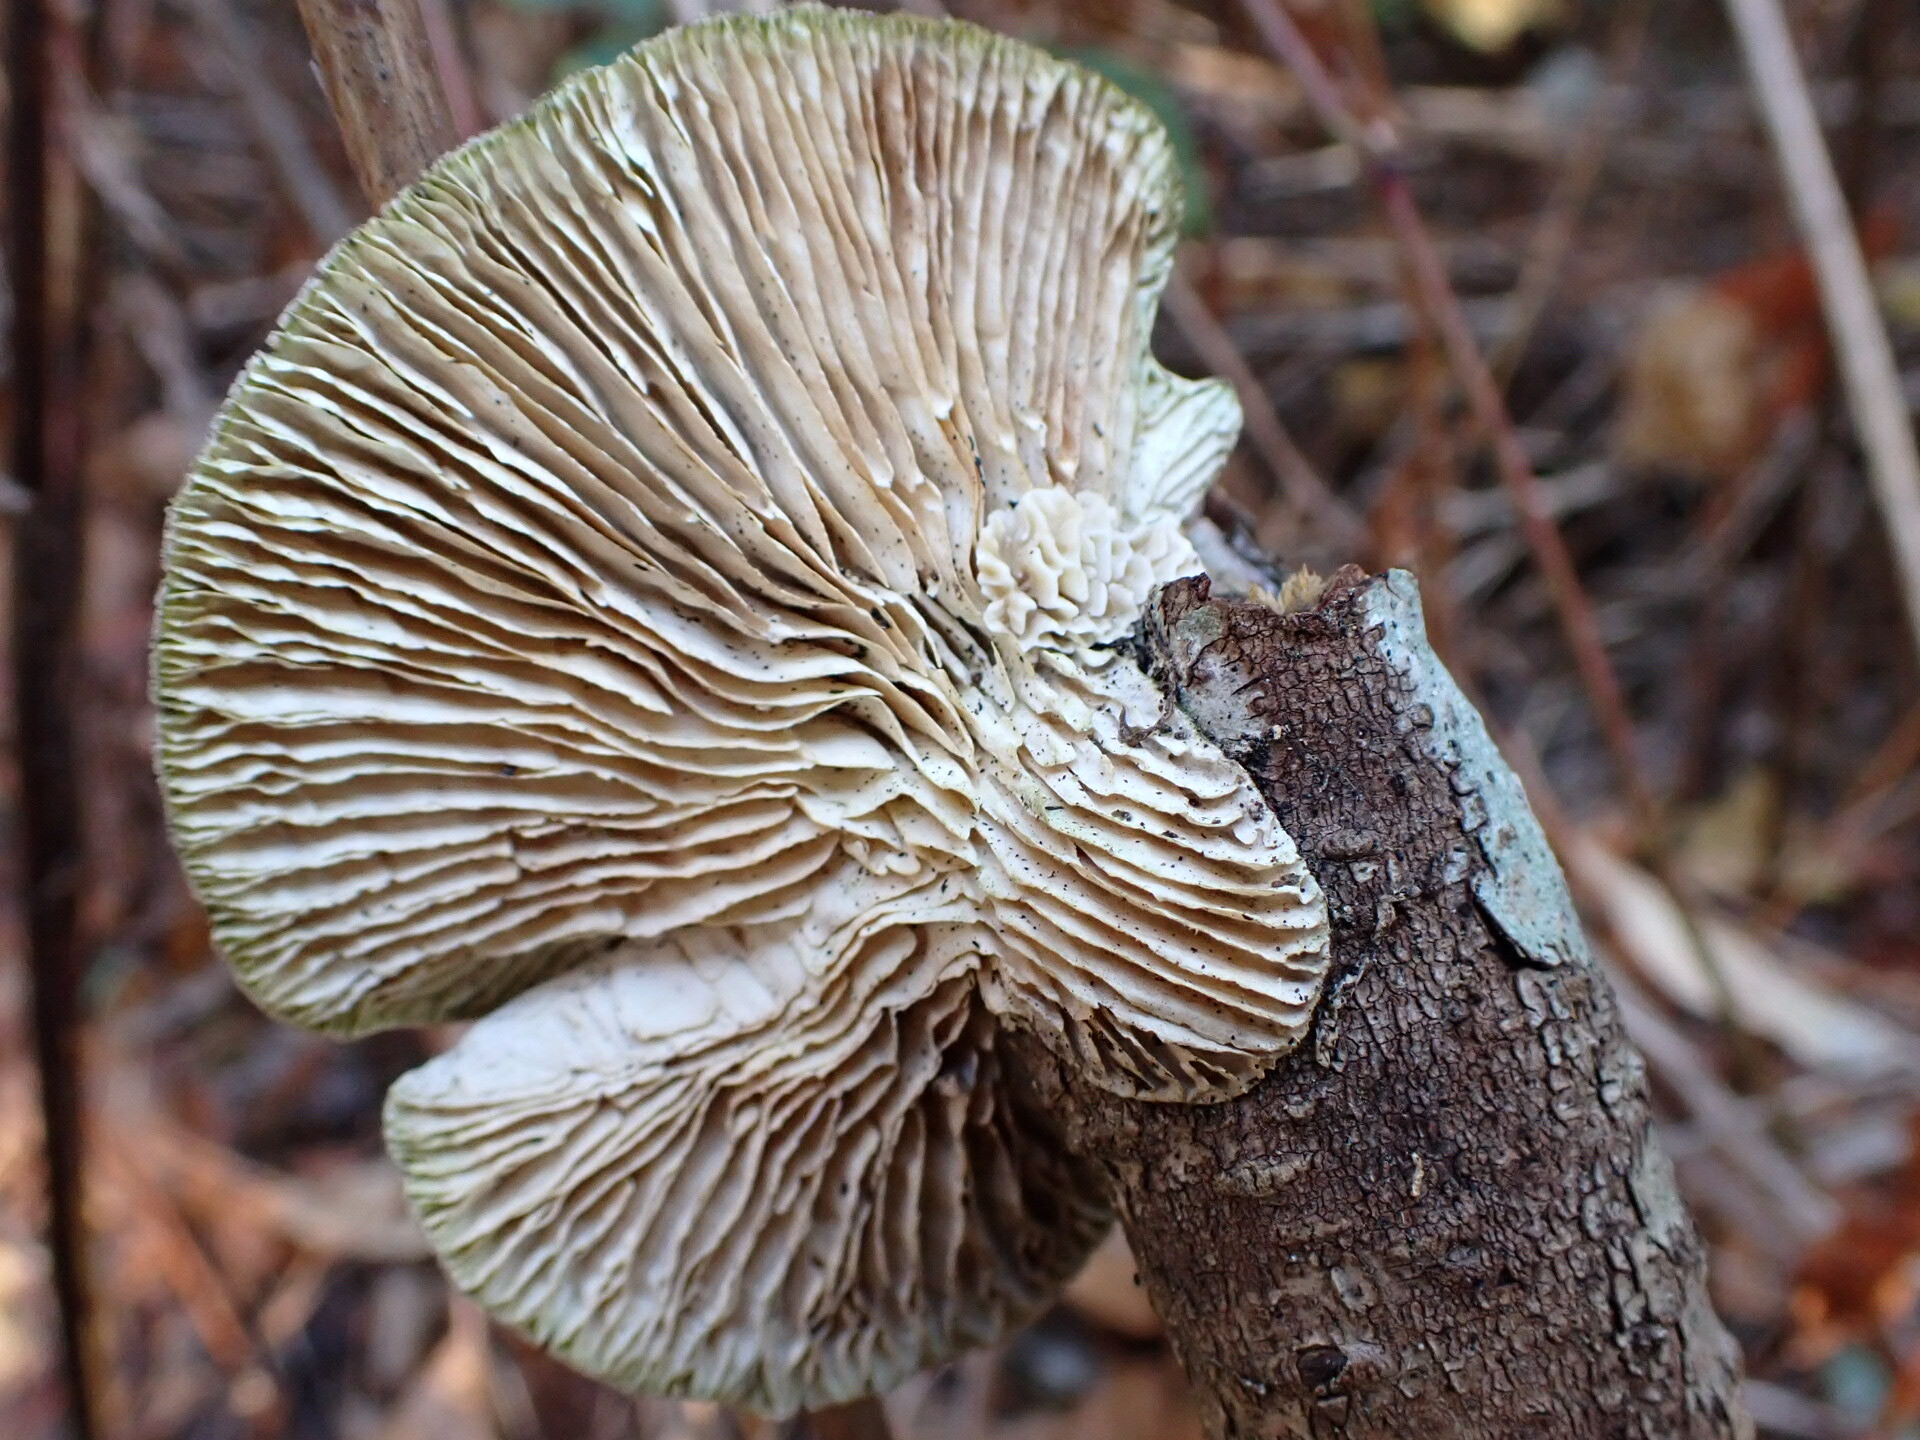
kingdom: Fungi
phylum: Basidiomycota
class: Agaricomycetes
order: Polyporales
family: Polyporaceae
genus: Lenzites
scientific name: Lenzites betulinus
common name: Birch mazegill
